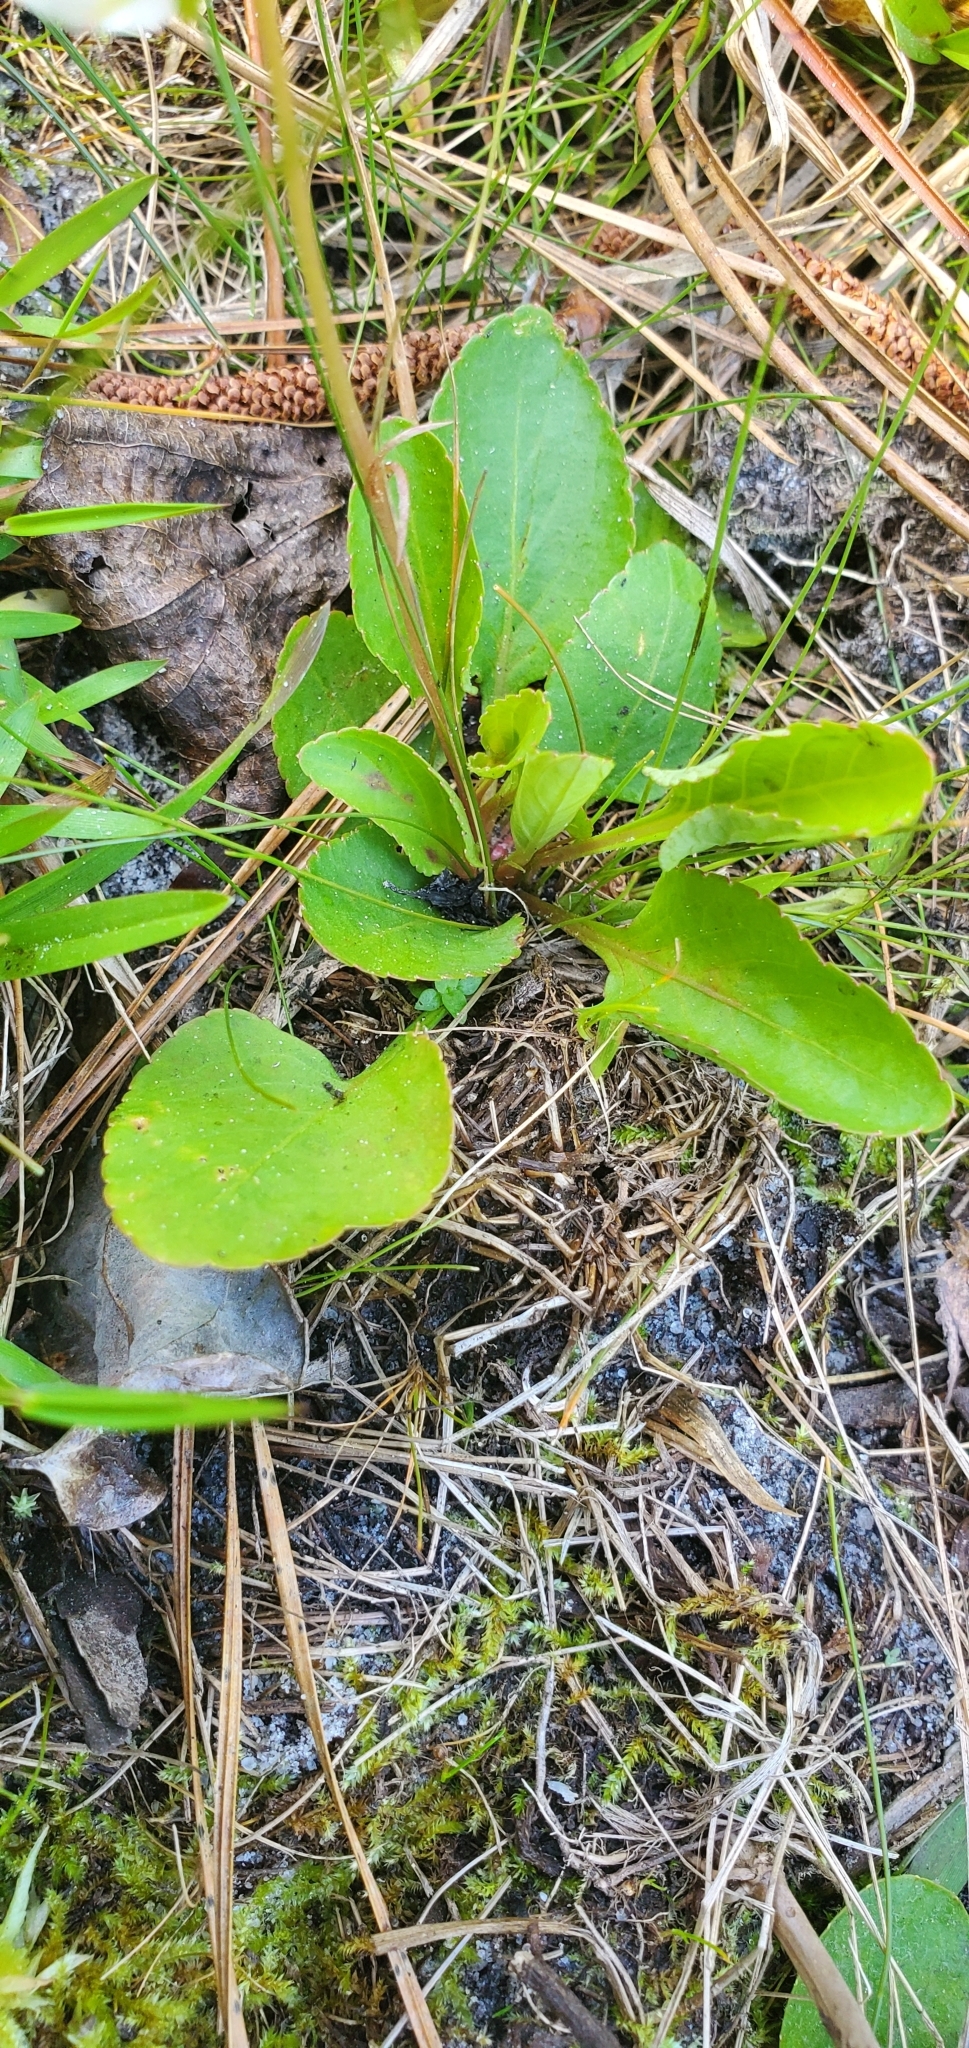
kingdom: Plantae
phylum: Tracheophyta
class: Magnoliopsida
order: Malpighiales
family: Violaceae
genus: Viola
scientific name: Viola primulifolia
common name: Primrose-leaf violet
